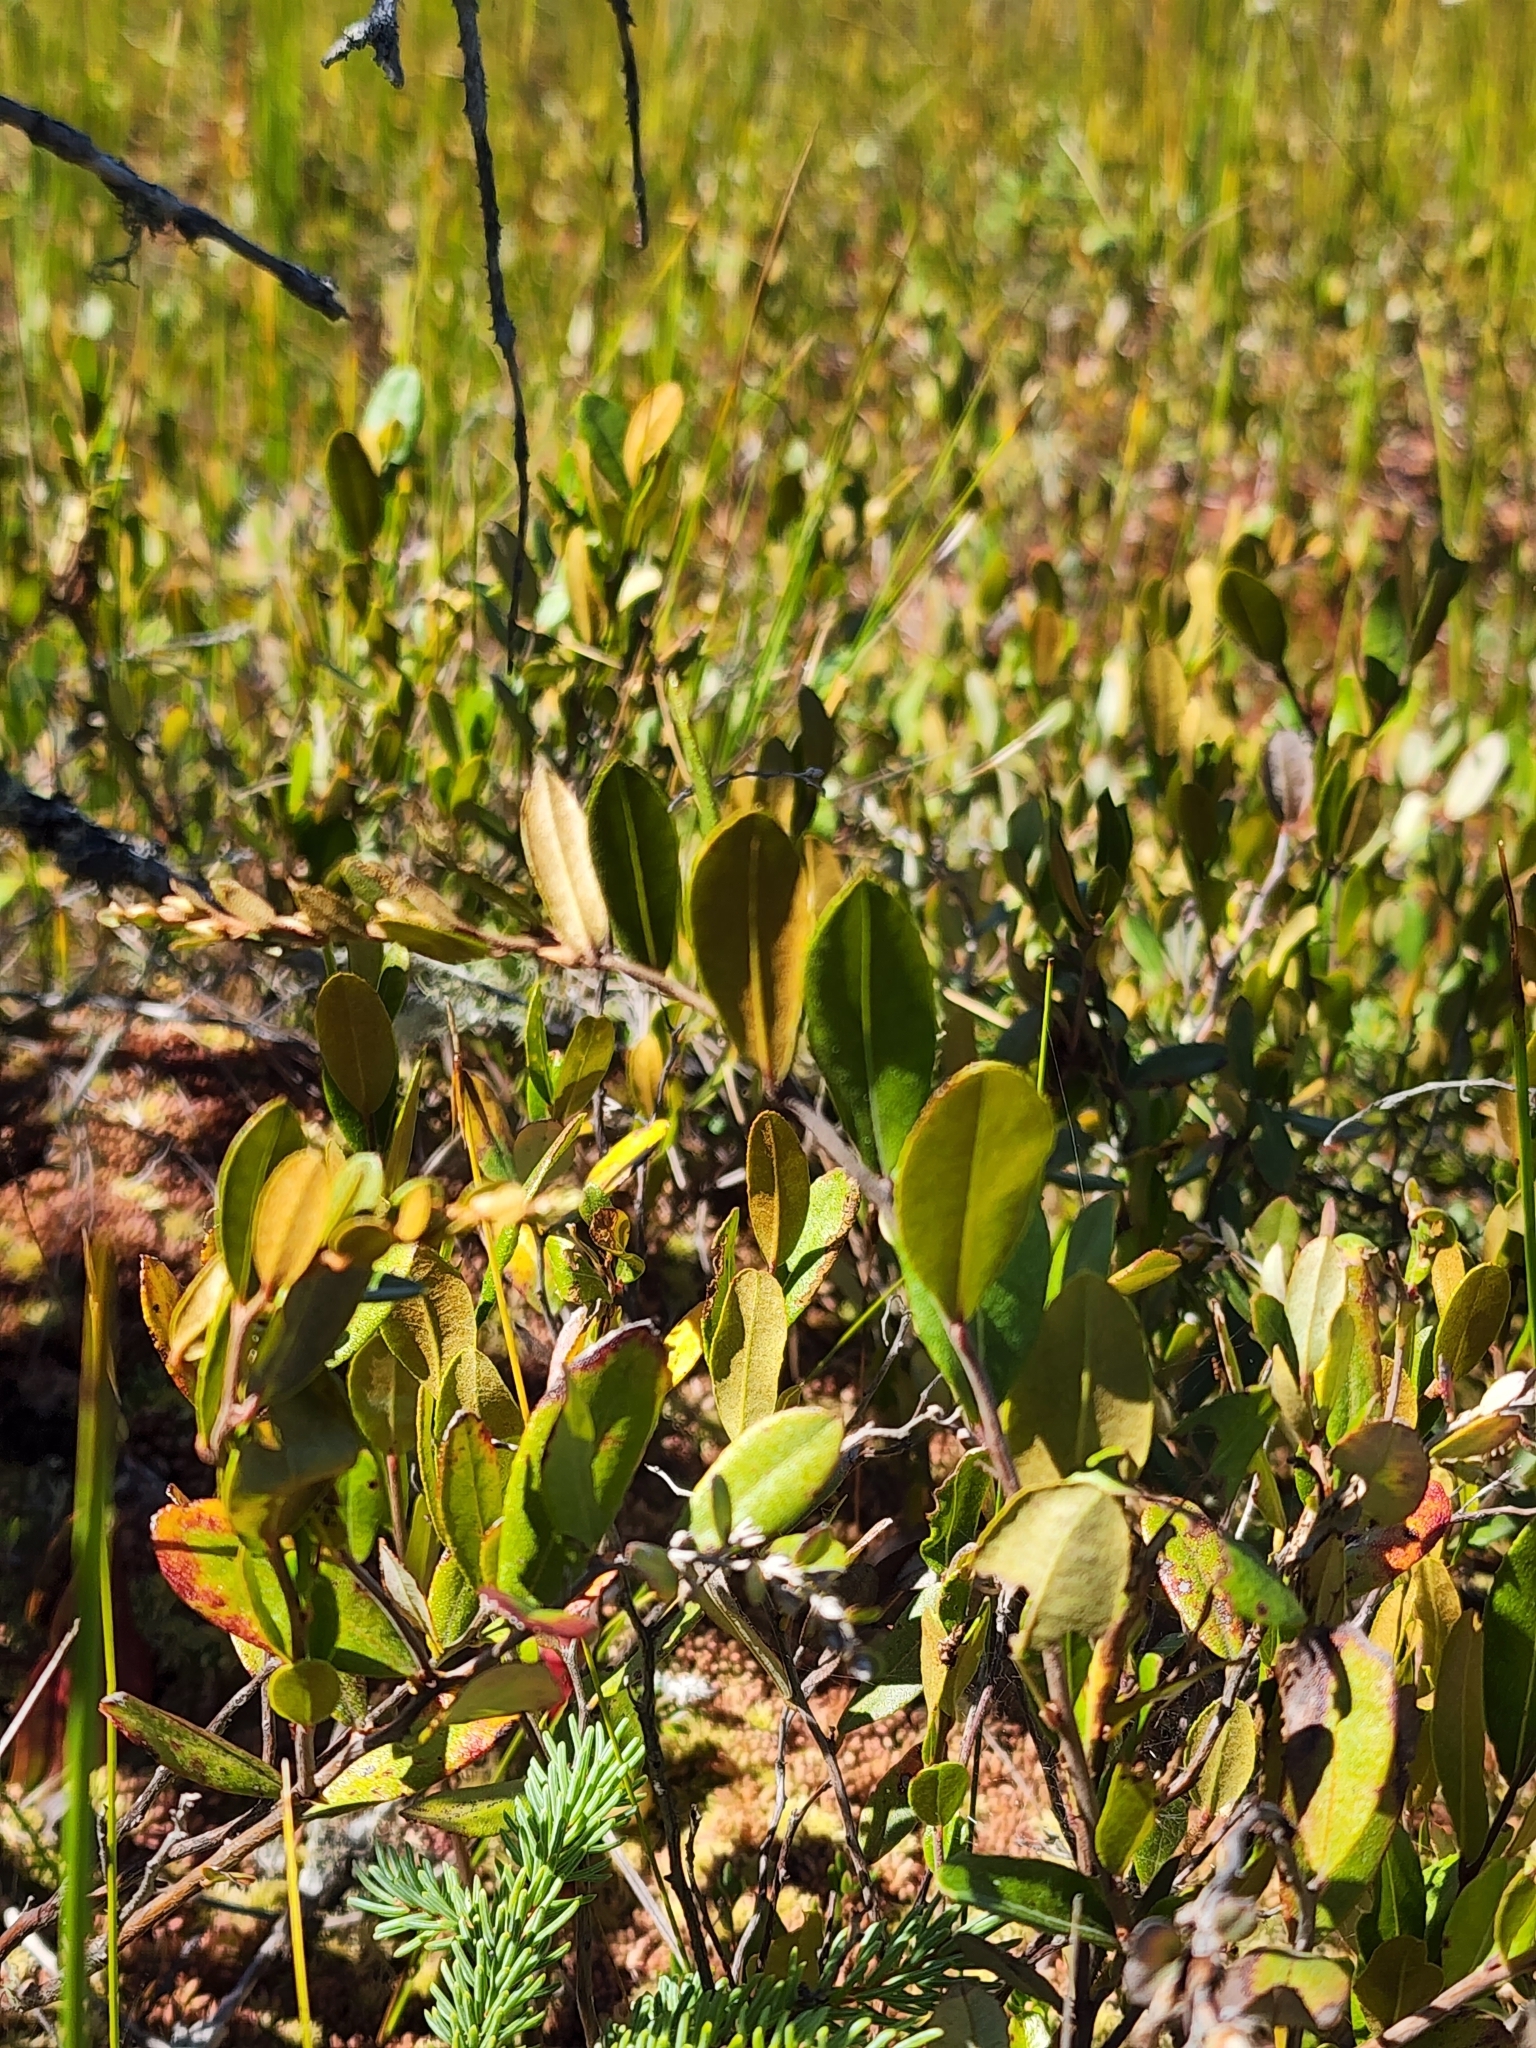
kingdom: Plantae
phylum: Tracheophyta
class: Magnoliopsida
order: Ericales
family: Ericaceae
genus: Chamaedaphne
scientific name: Chamaedaphne calyculata
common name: Leatherleaf
